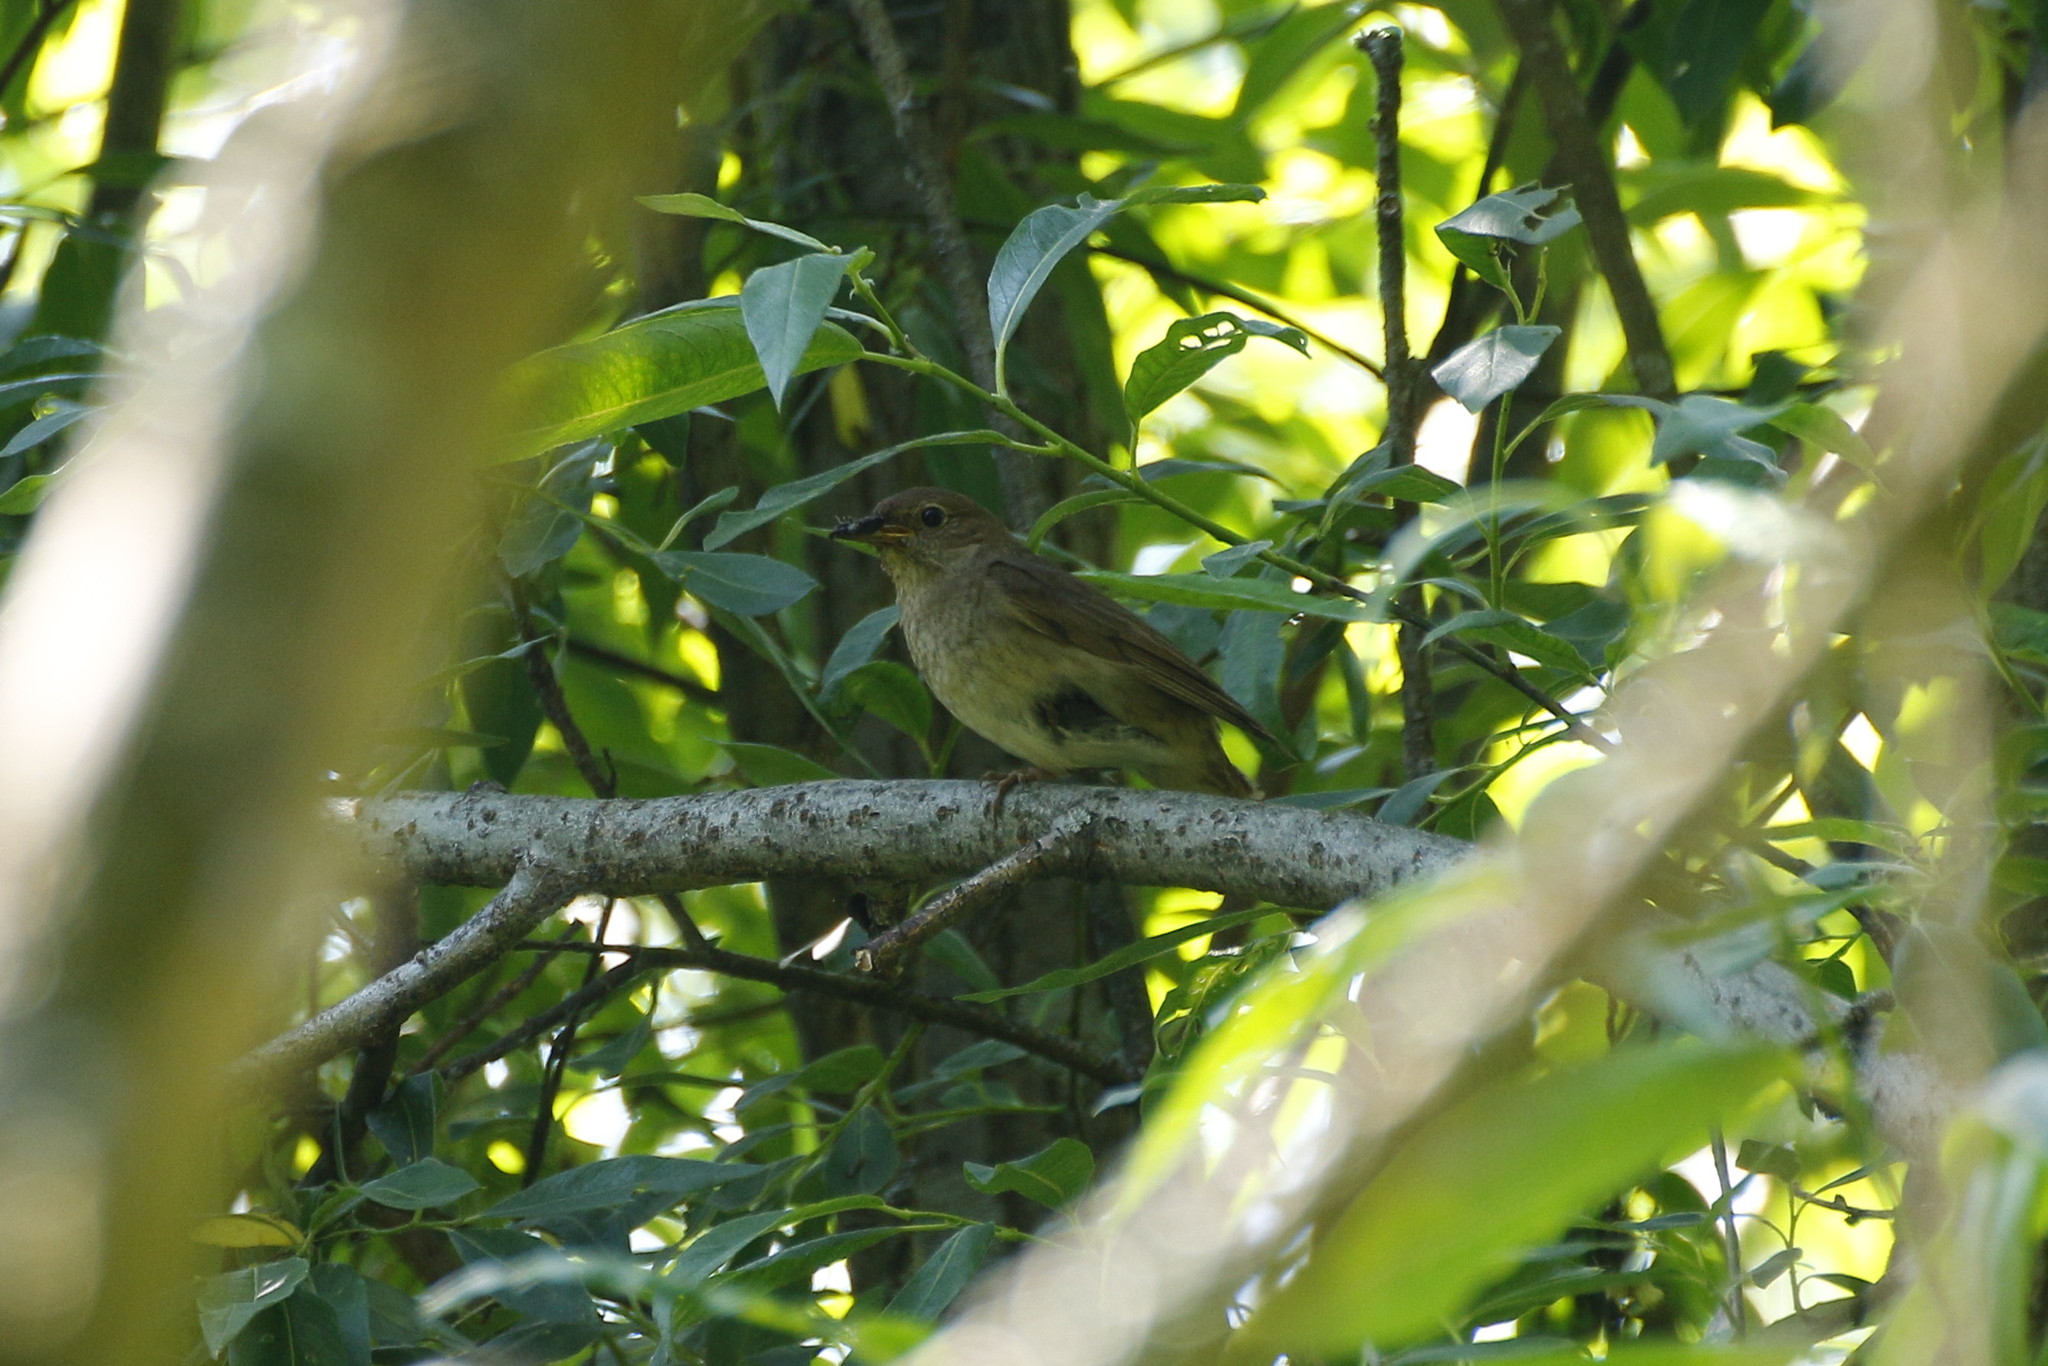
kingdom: Animalia
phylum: Chordata
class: Aves
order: Passeriformes
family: Muscicapidae
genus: Luscinia
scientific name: Luscinia luscinia
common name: Thrush nightingale
